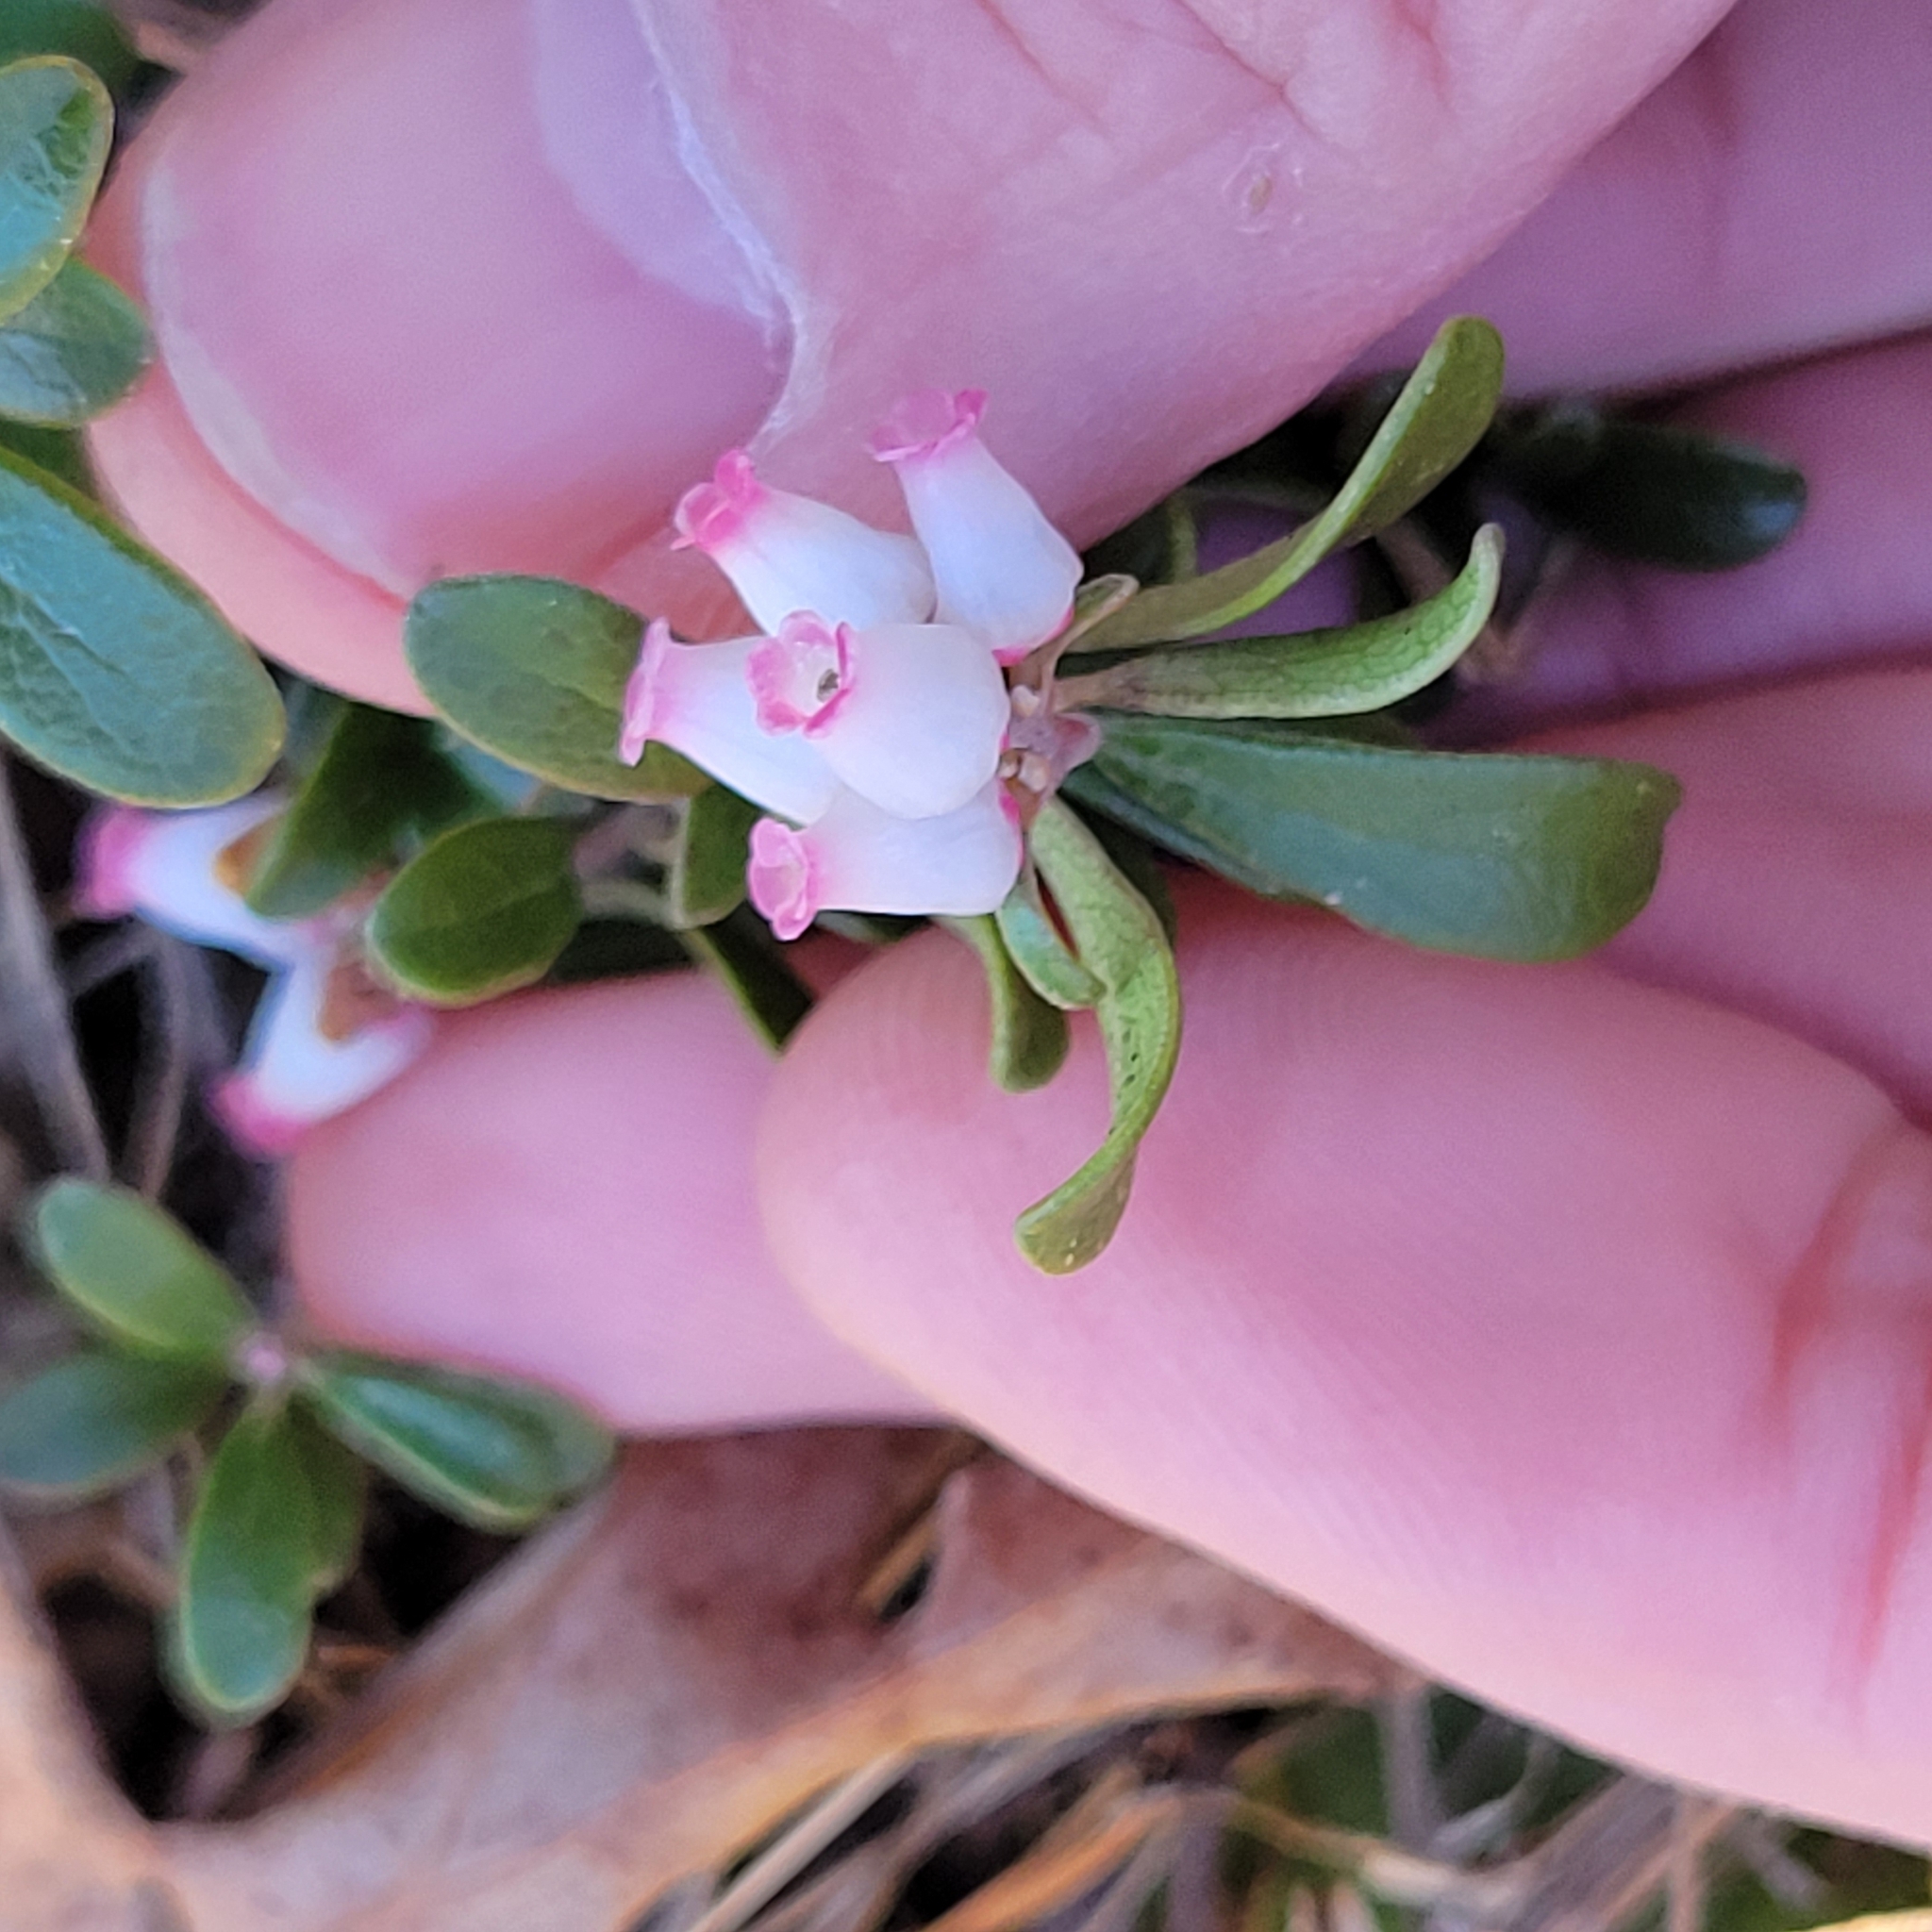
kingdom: Plantae
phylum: Tracheophyta
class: Magnoliopsida
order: Ericales
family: Ericaceae
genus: Arctostaphylos
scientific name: Arctostaphylos uva-ursi
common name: Bearberry
